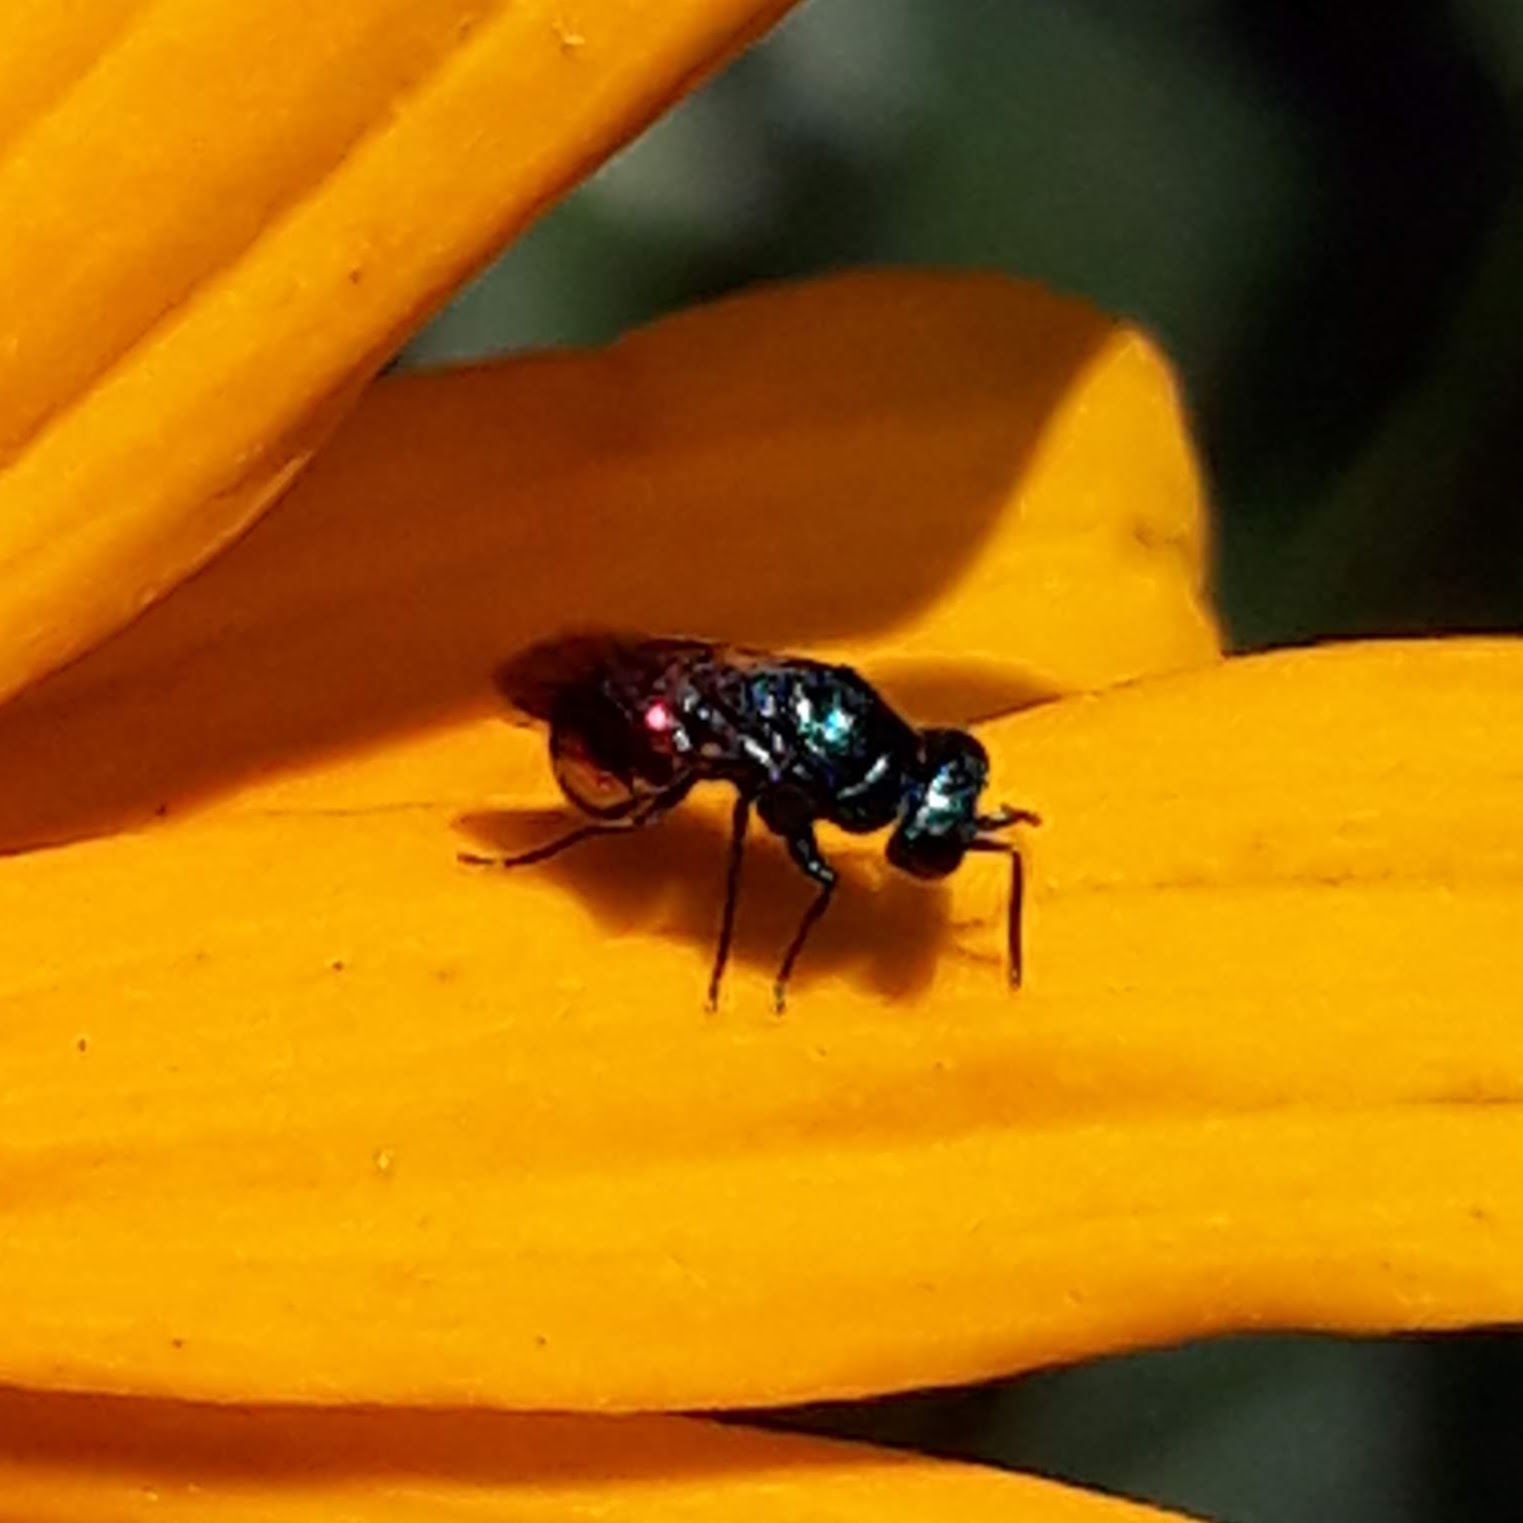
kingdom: Animalia
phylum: Arthropoda
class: Insecta
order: Hymenoptera
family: Chrysididae
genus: Pseudomalus
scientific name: Pseudomalus auratus
